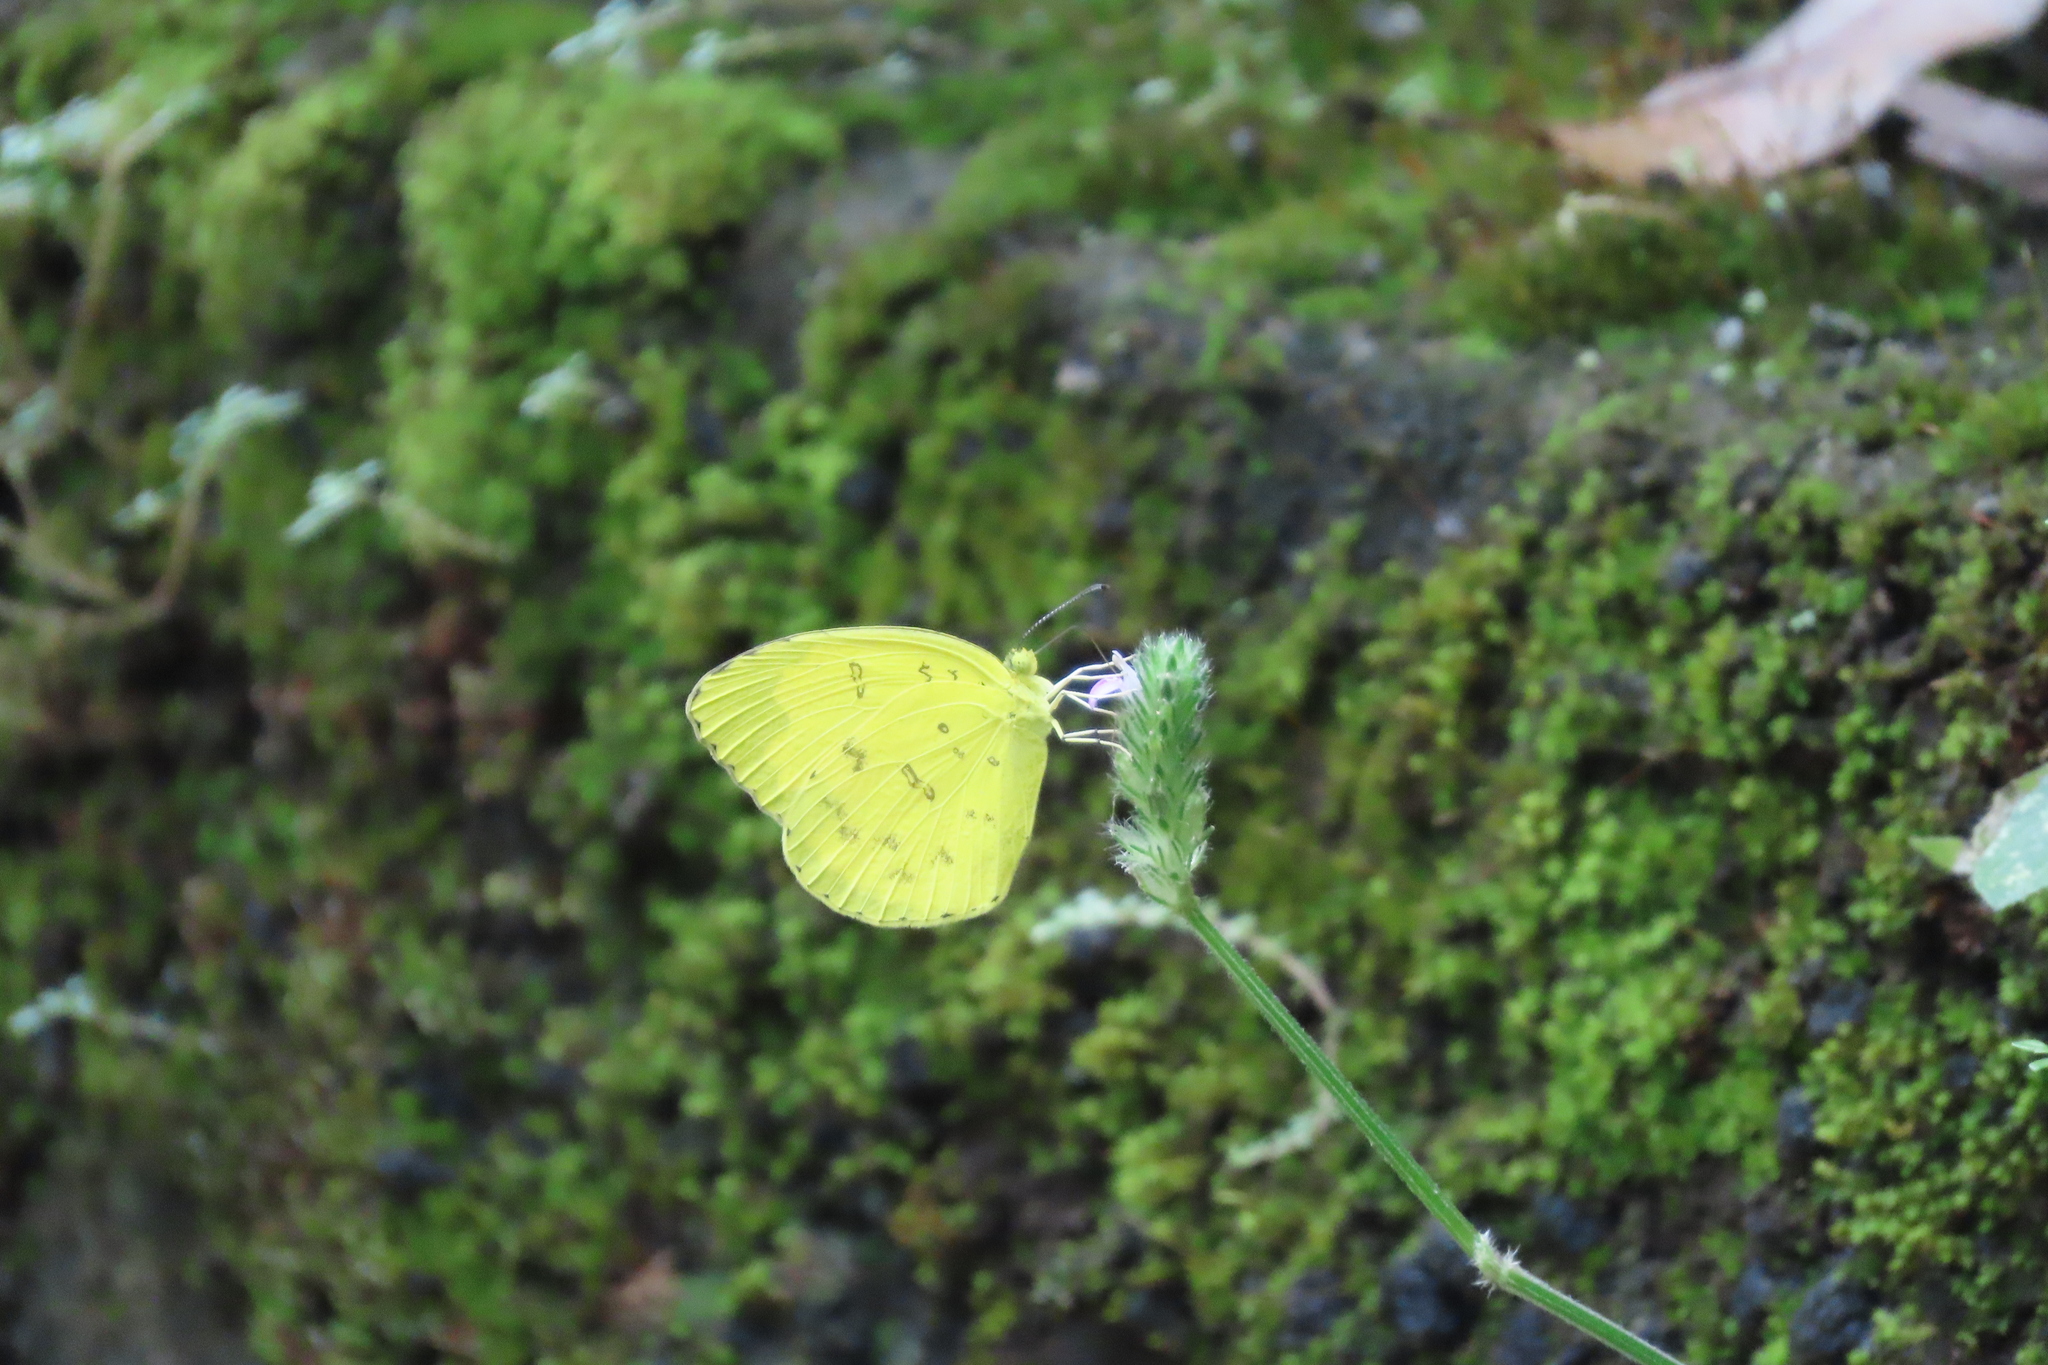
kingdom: Animalia
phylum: Arthropoda
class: Insecta
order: Lepidoptera
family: Pieridae
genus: Eurema
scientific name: Eurema blanda
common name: Three-spot grass yellow
